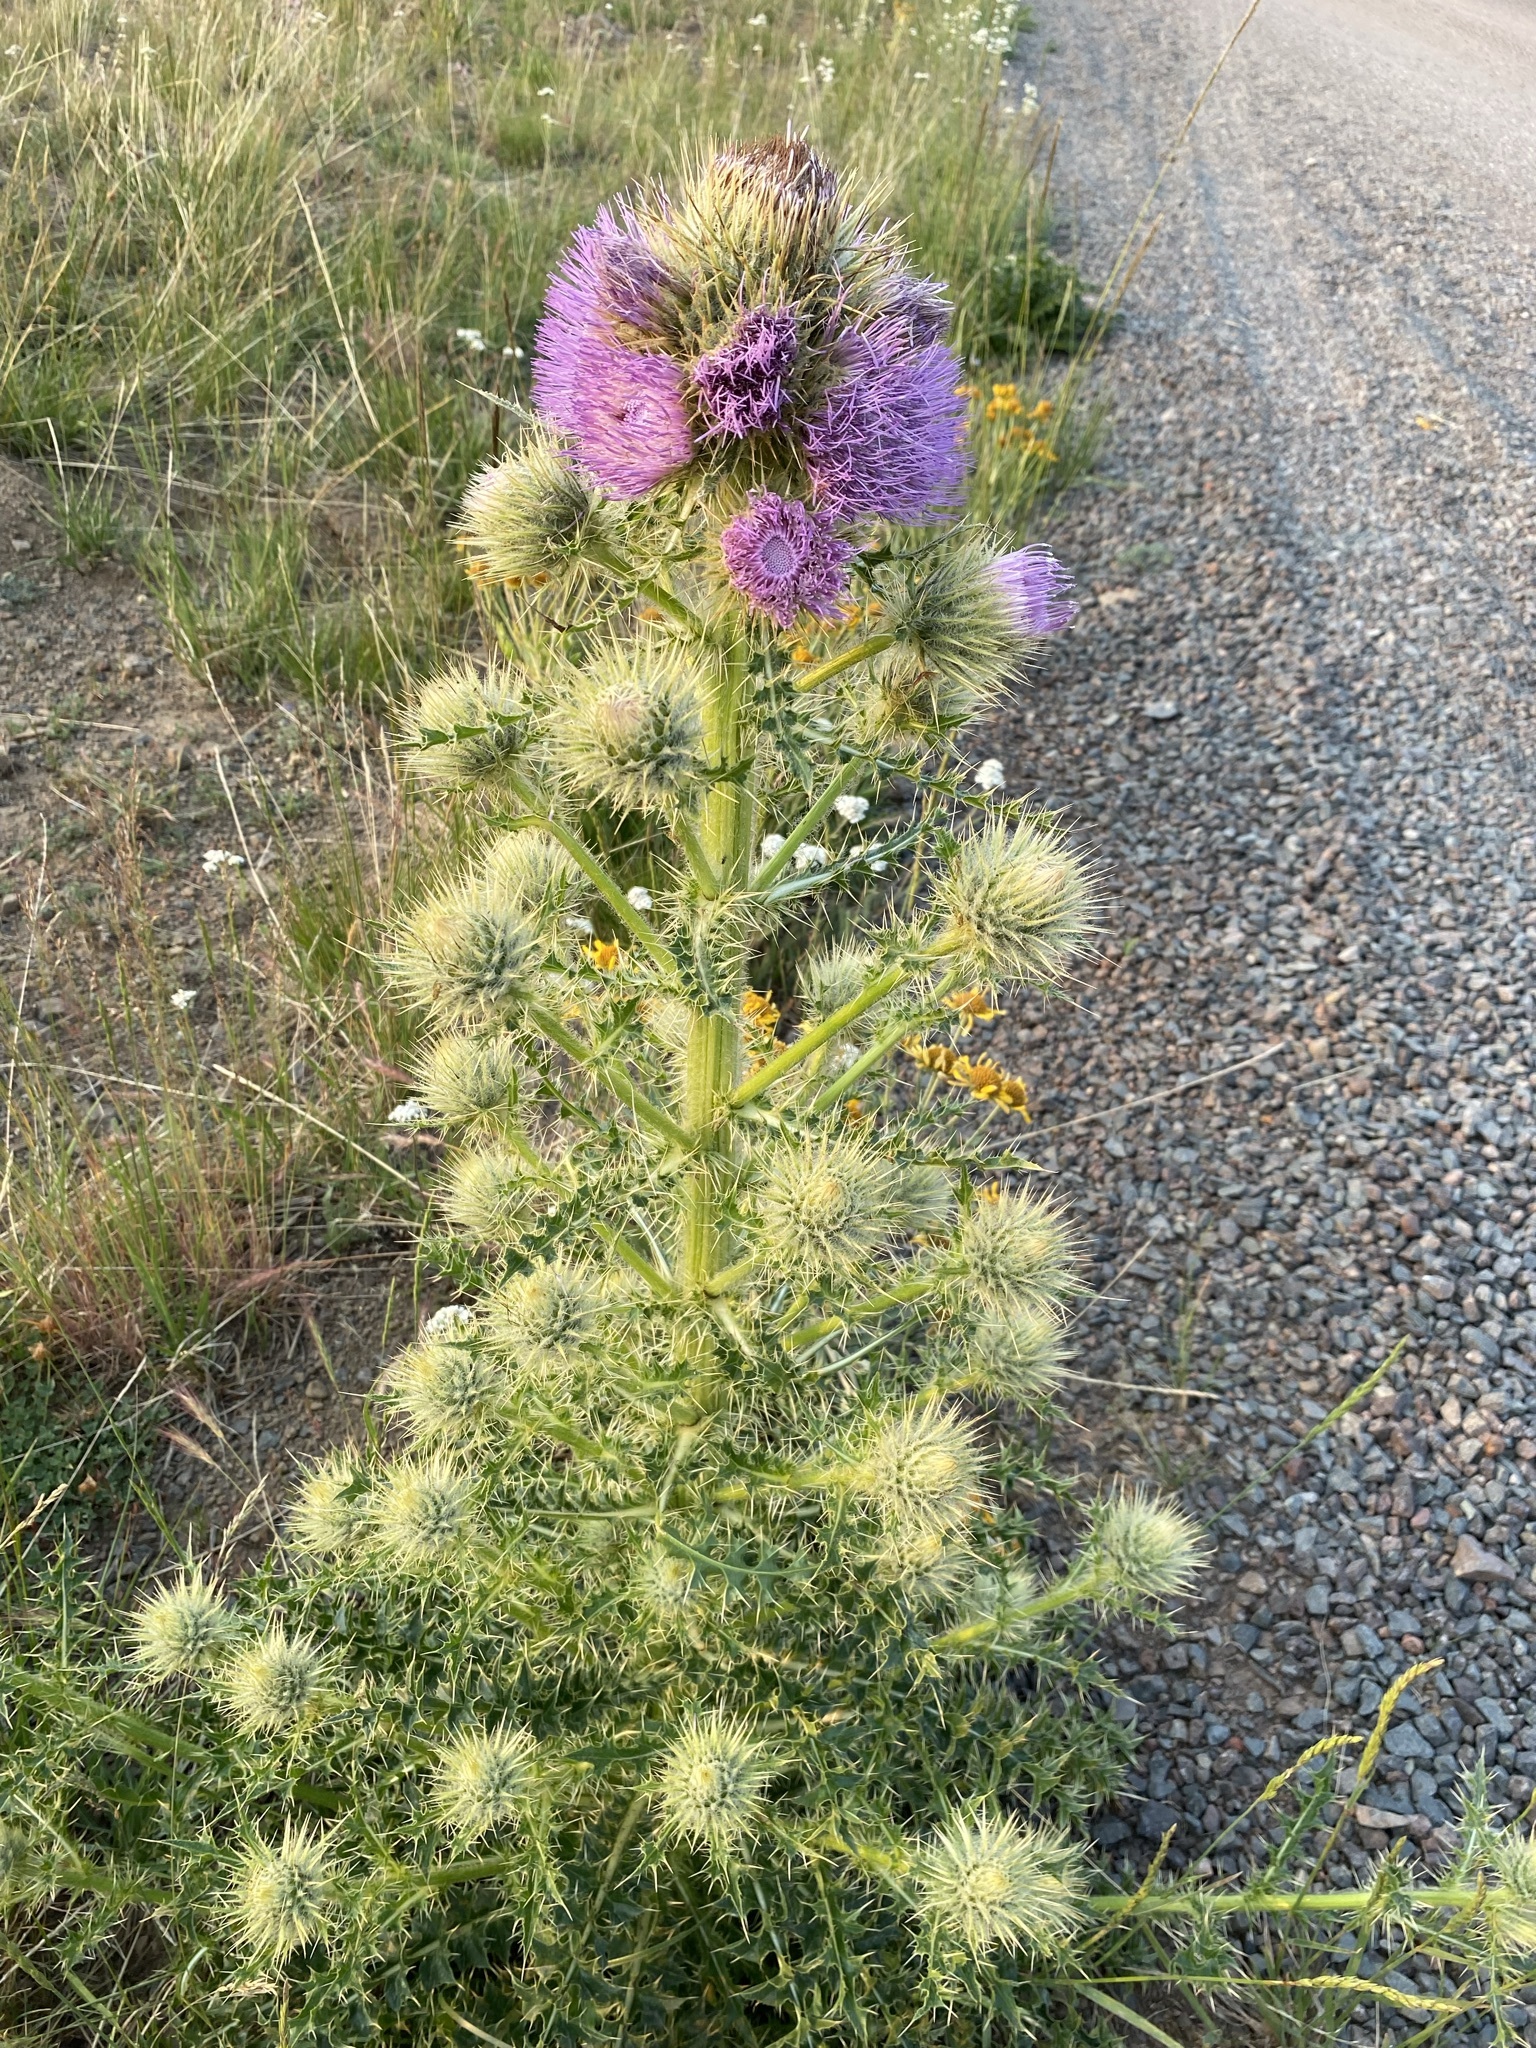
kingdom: Plantae
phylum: Tracheophyta
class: Magnoliopsida
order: Asterales
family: Asteraceae
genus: Cirsium
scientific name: Cirsium peckii
